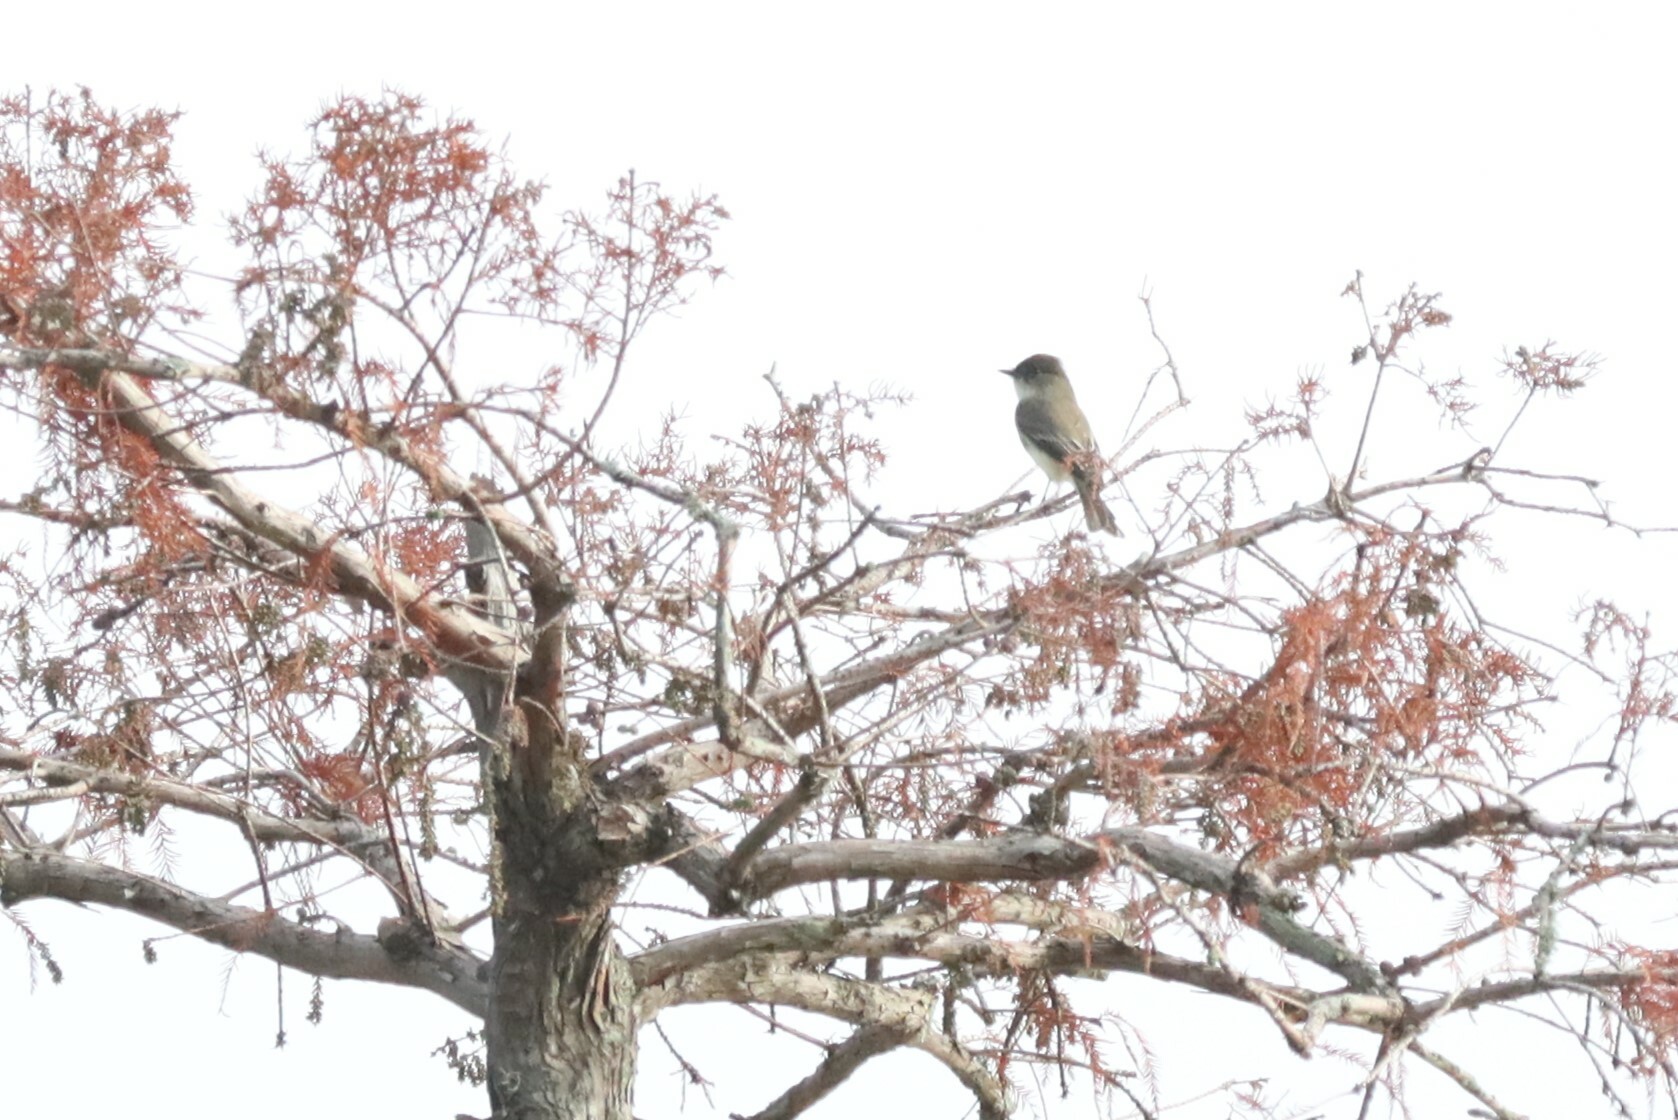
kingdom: Animalia
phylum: Chordata
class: Aves
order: Passeriformes
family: Tyrannidae
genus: Sayornis
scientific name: Sayornis phoebe
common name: Eastern phoebe
